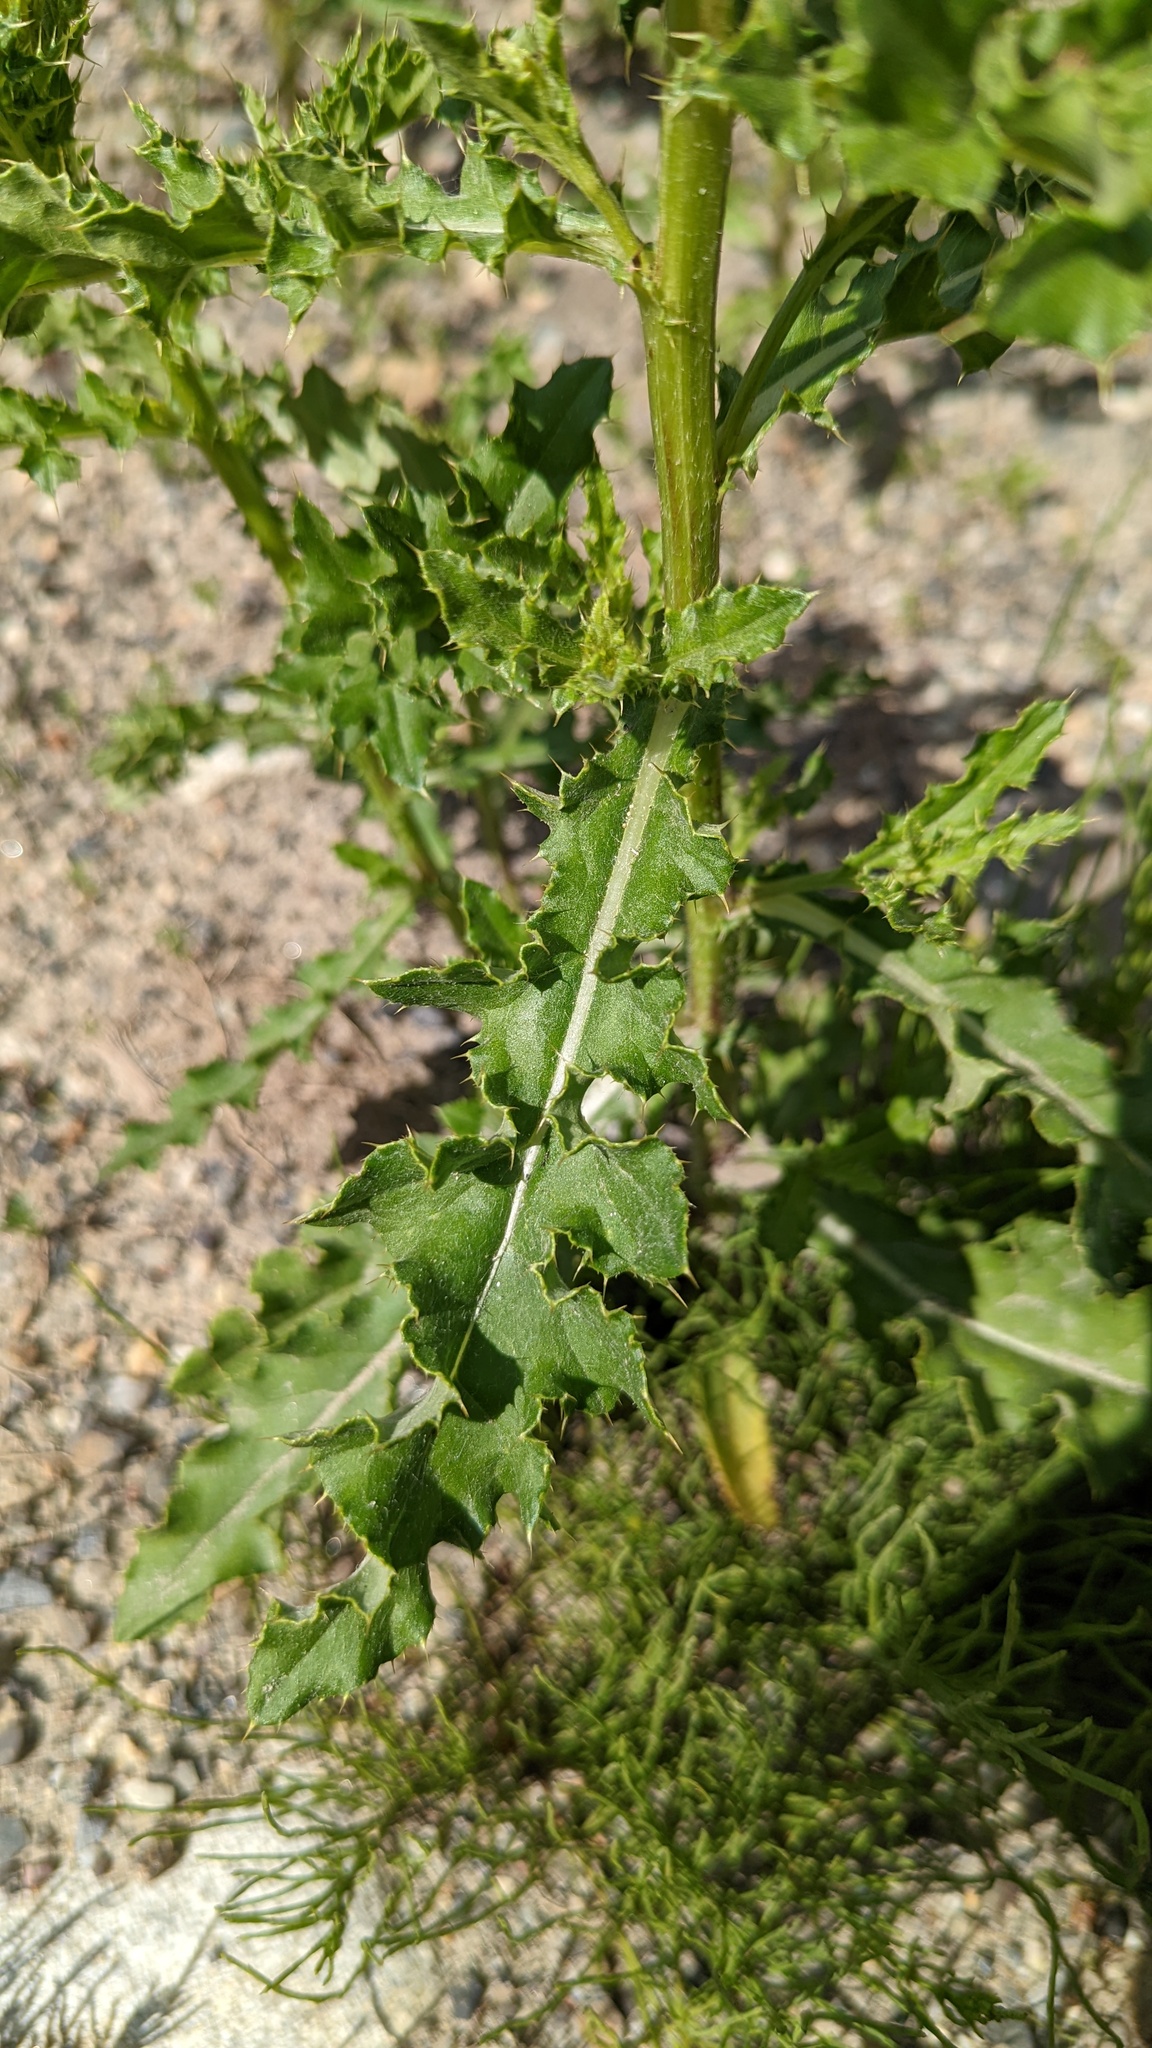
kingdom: Plantae
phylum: Tracheophyta
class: Magnoliopsida
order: Asterales
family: Asteraceae
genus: Cirsium
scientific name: Cirsium arvense
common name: Creeping thistle
